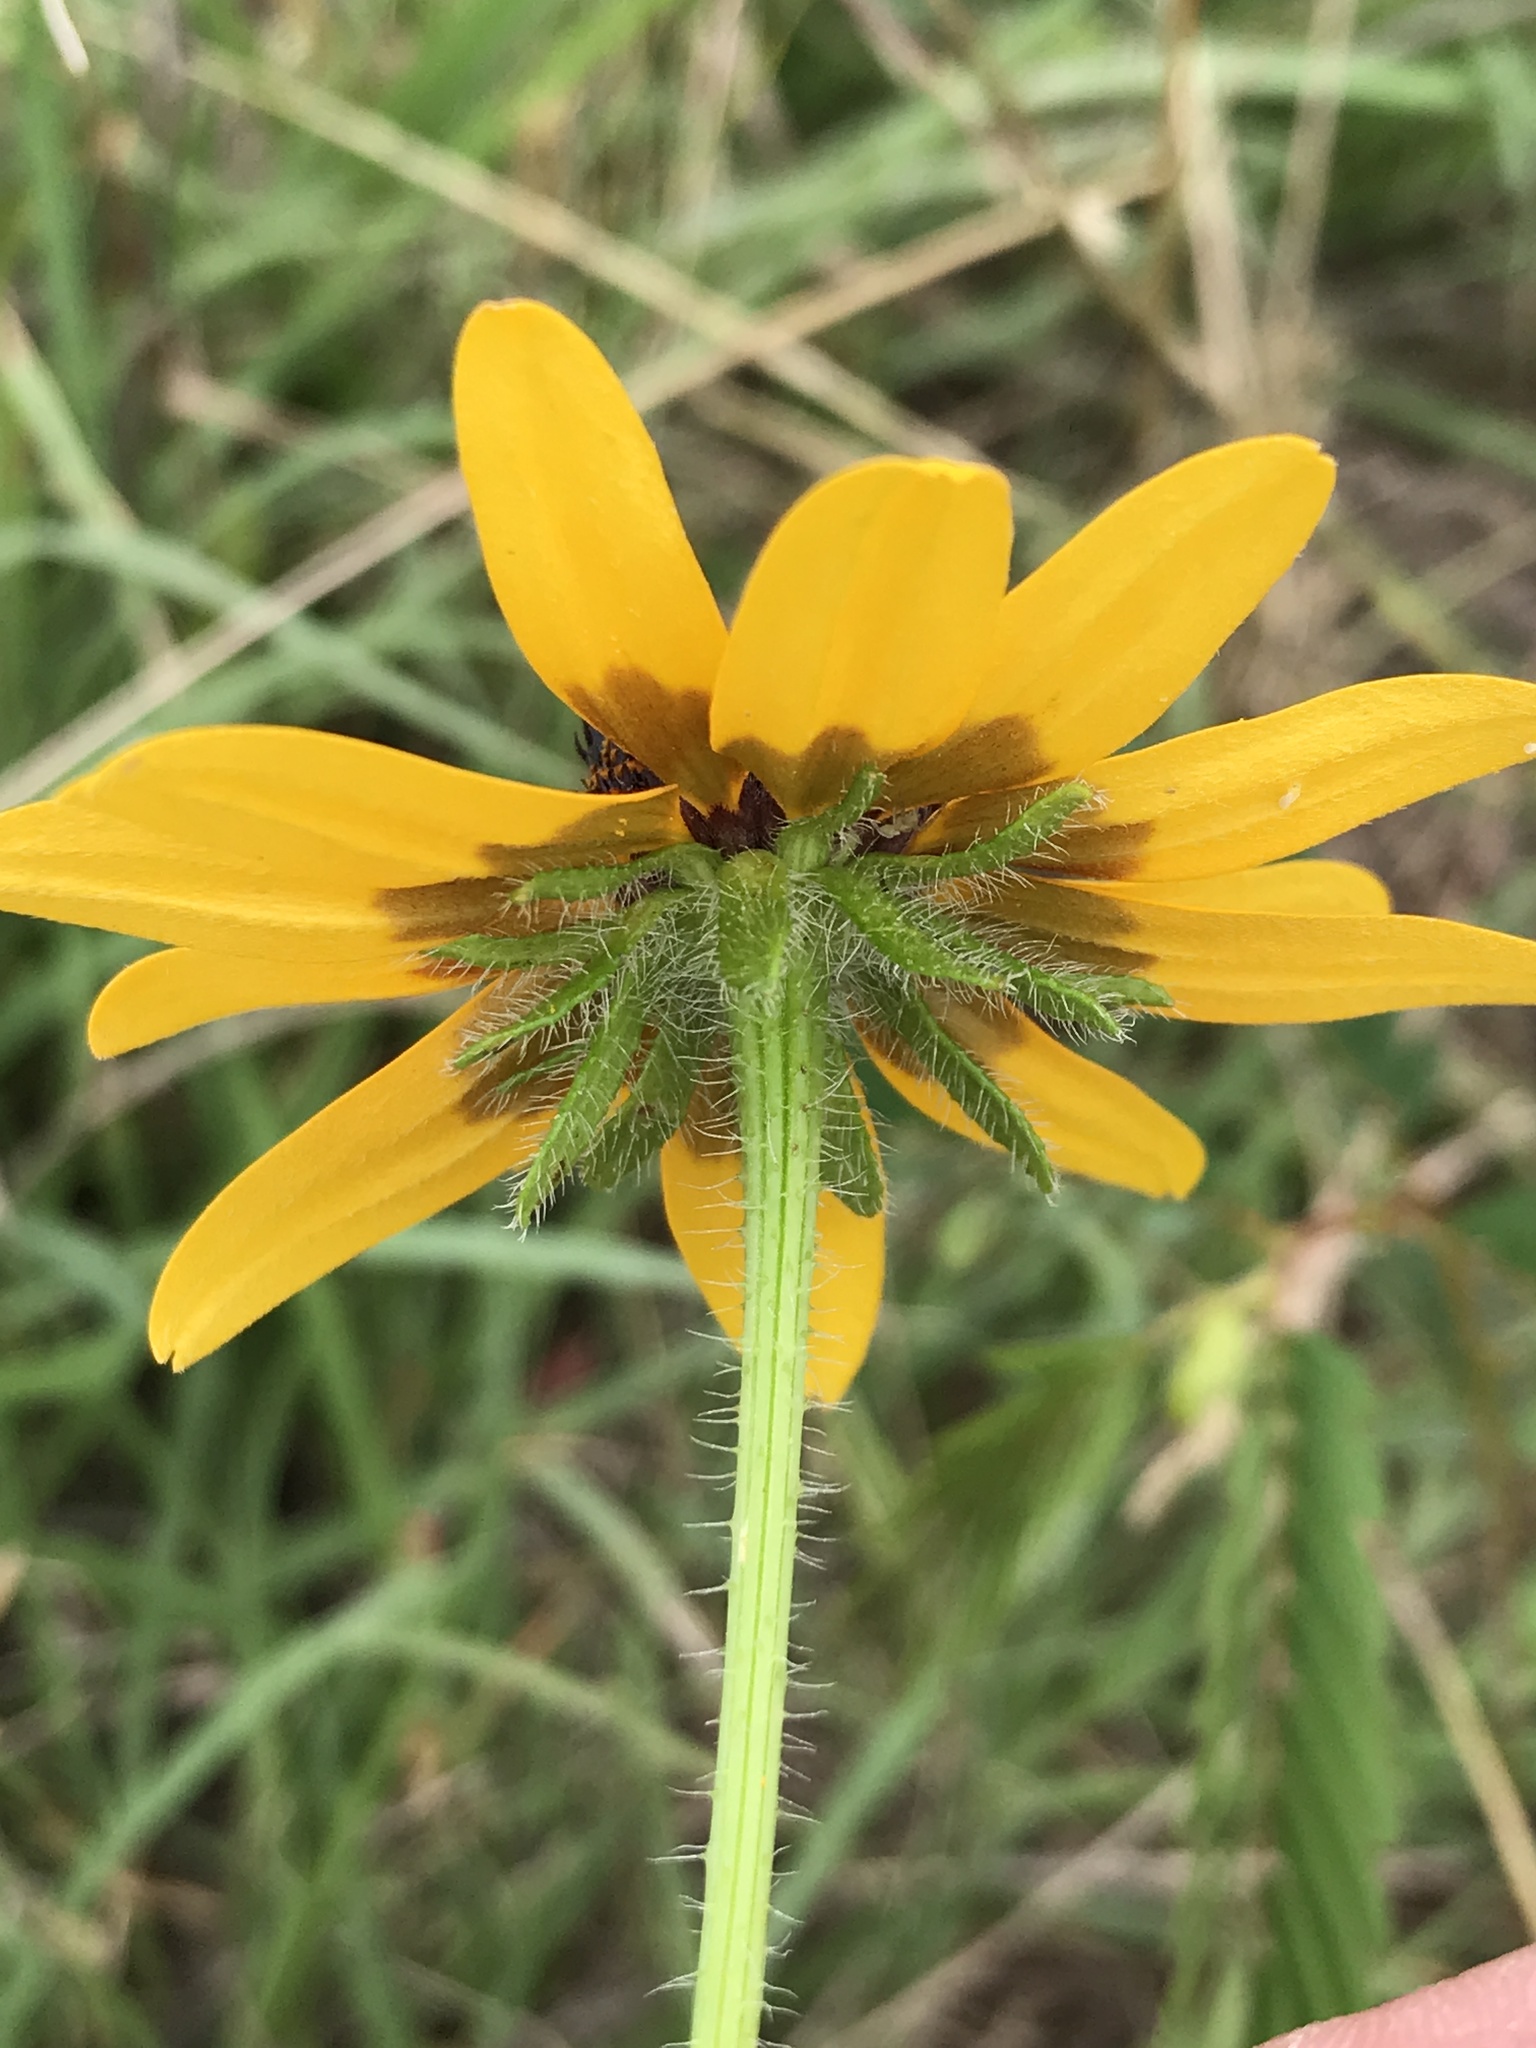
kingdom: Plantae
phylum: Tracheophyta
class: Magnoliopsida
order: Asterales
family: Asteraceae
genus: Rudbeckia
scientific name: Rudbeckia hirta
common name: Black-eyed-susan
